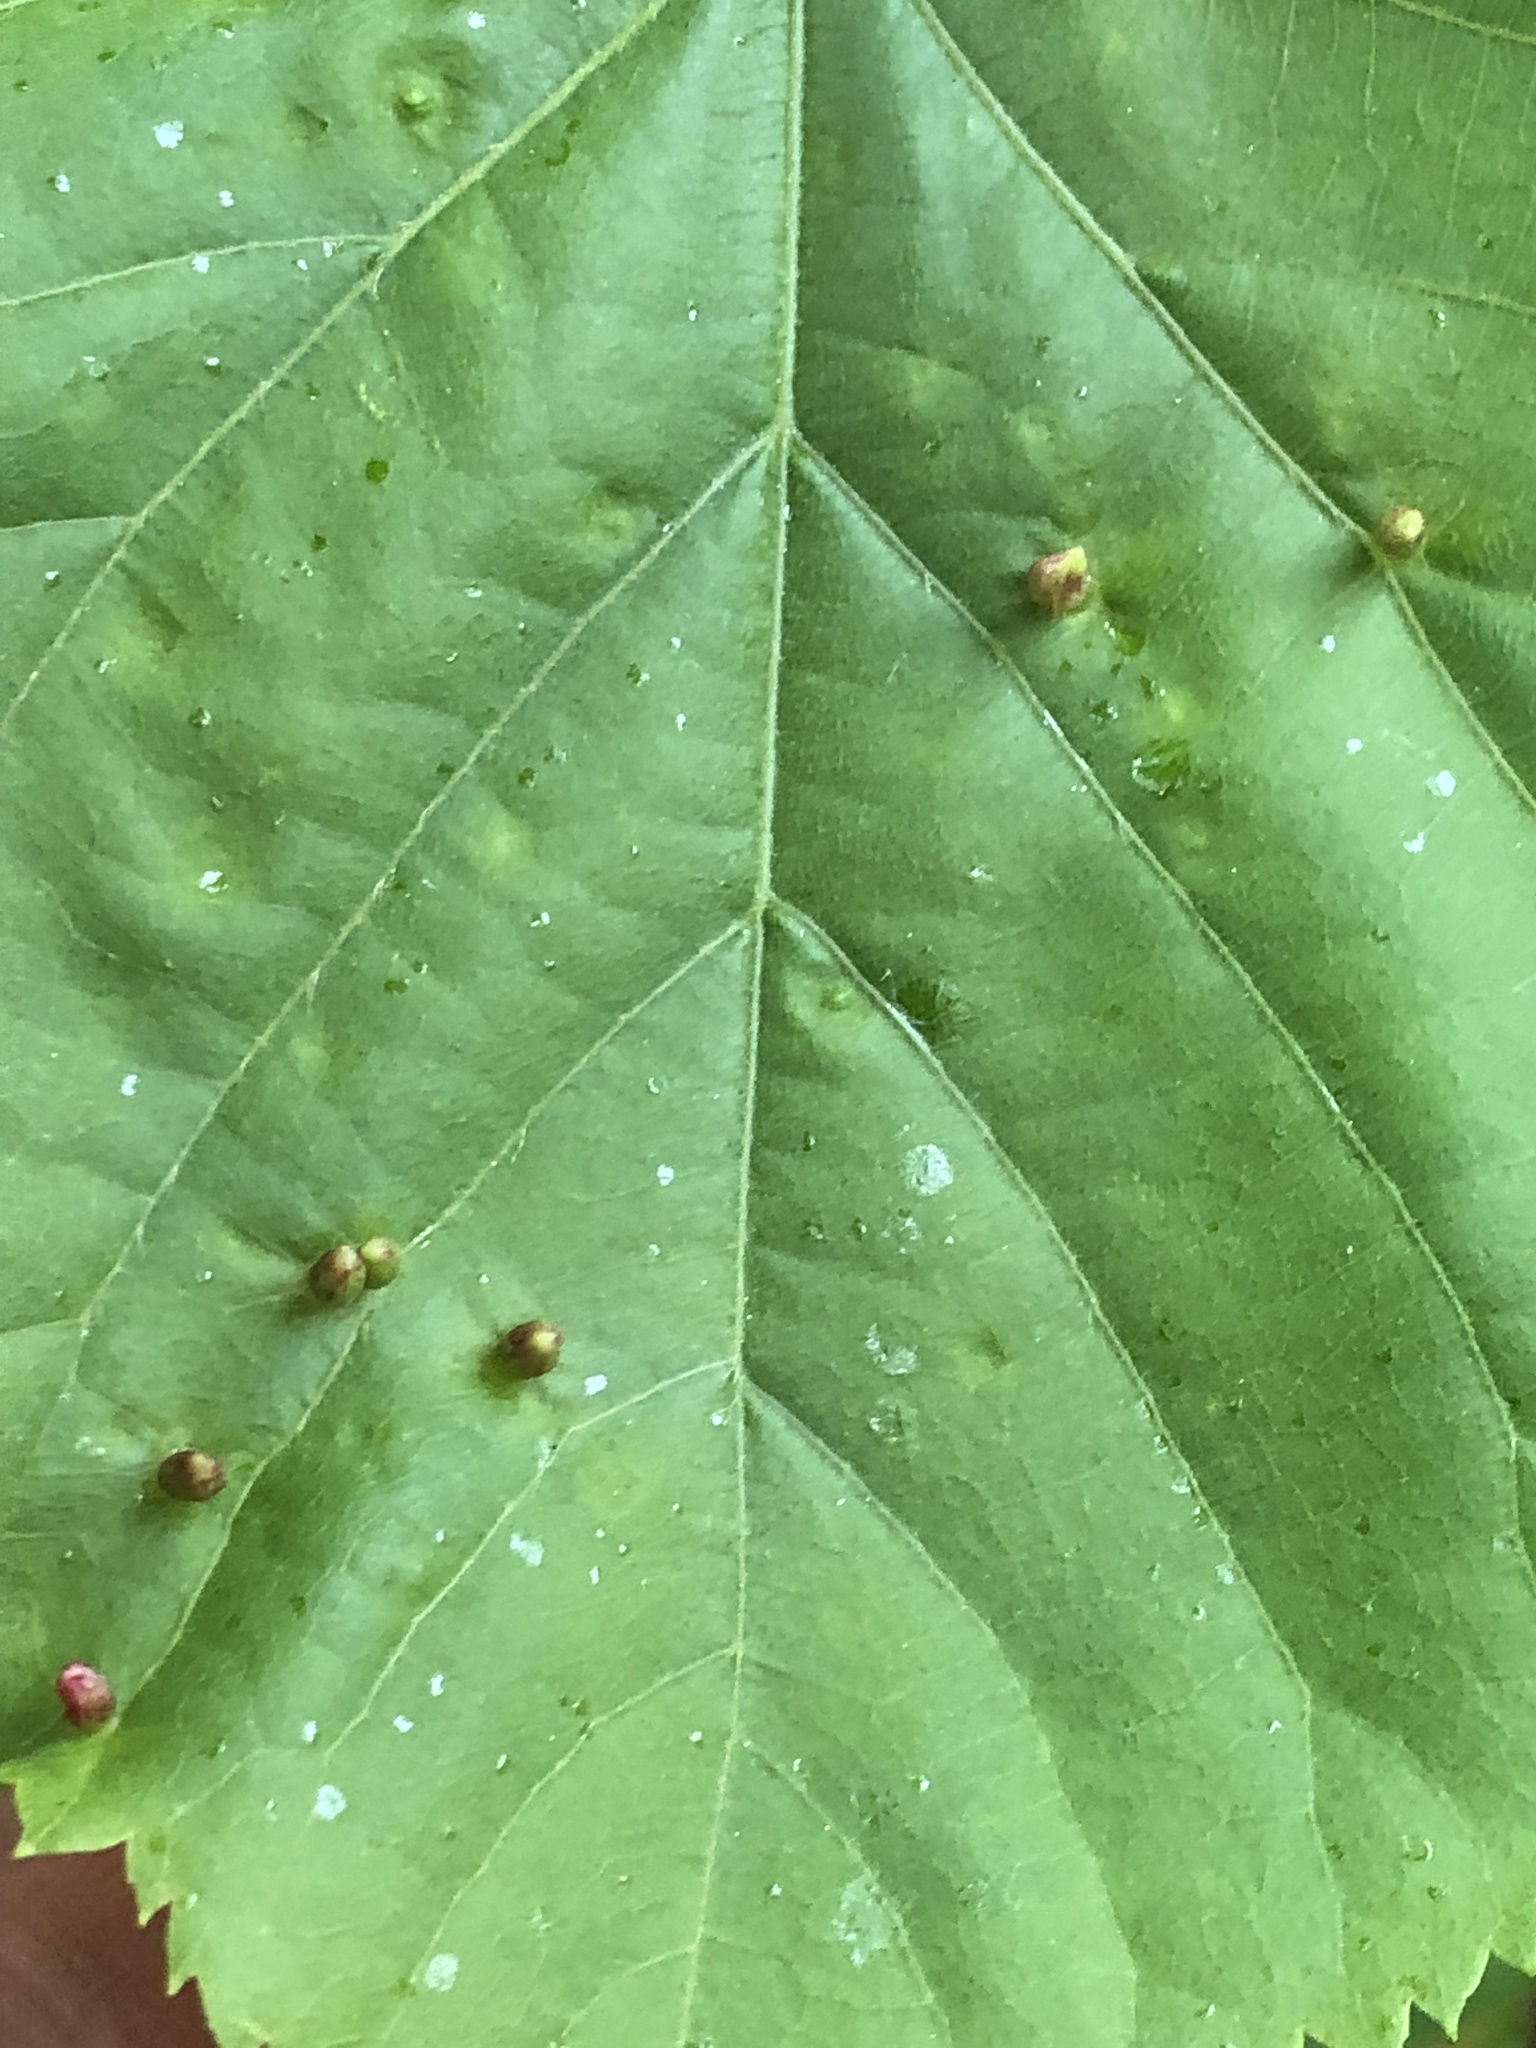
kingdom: Animalia
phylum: Arthropoda
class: Arachnida
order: Trombidiformes
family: Eriophyidae
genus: Eriophyes
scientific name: Eriophyes tiliae
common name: Red nail gall mite
